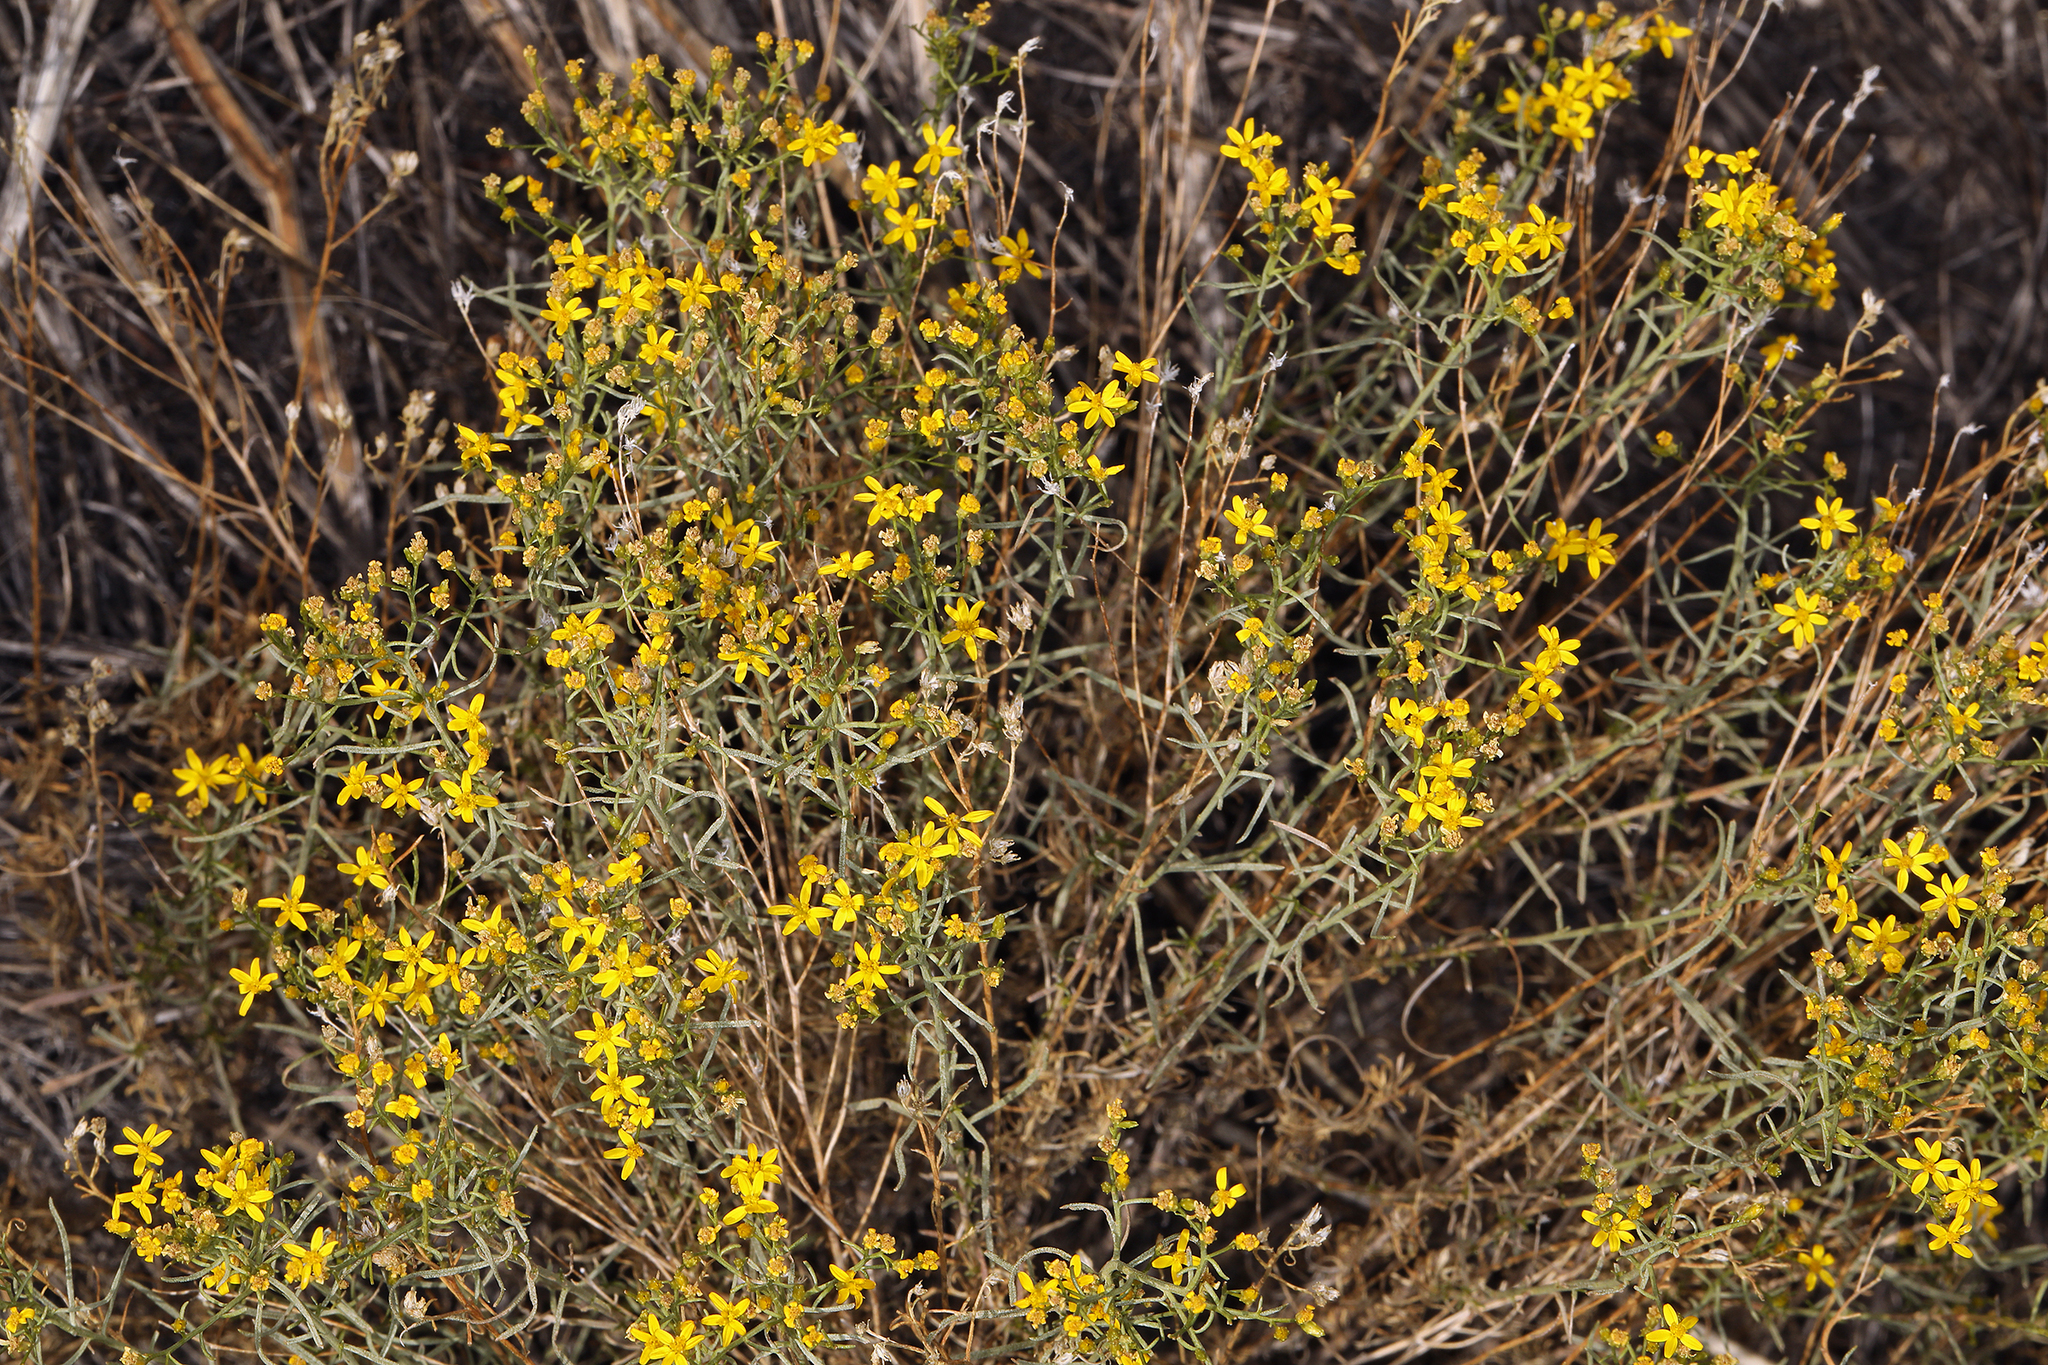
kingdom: Plantae
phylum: Tracheophyta
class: Magnoliopsida
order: Asterales
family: Asteraceae
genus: Gutierrezia
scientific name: Gutierrezia sarothrae
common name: Broom snakeweed
